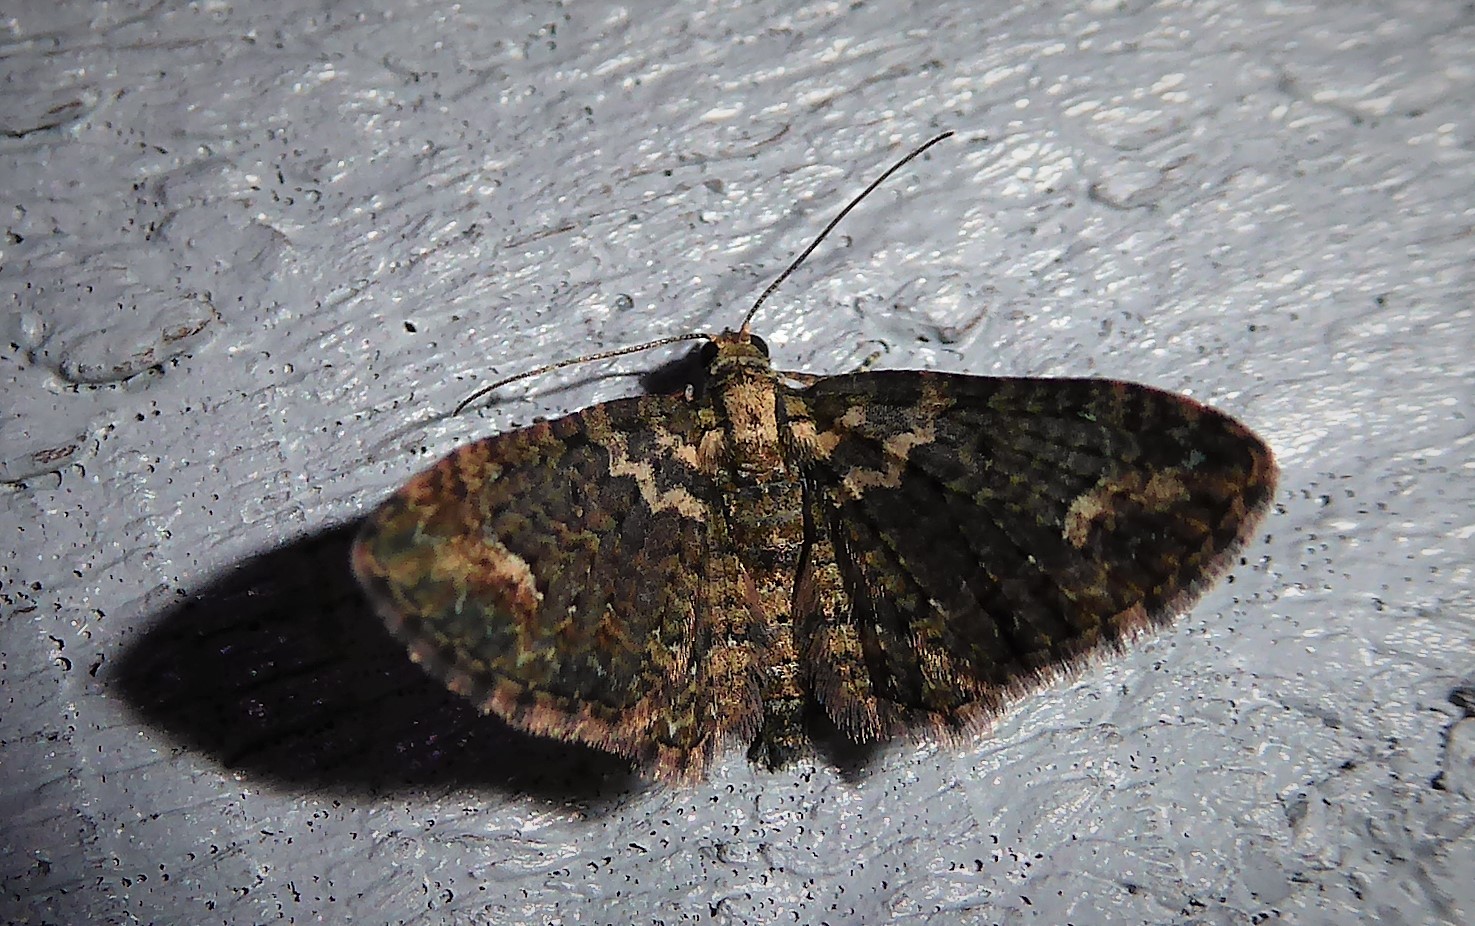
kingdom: Animalia
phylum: Arthropoda
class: Insecta
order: Lepidoptera
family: Geometridae
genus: Pasiphilodes
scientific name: Pasiphilodes testulata
